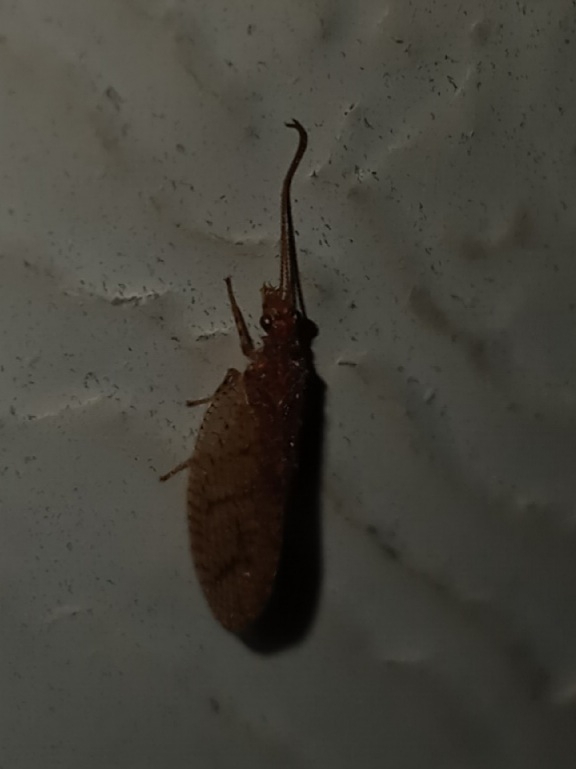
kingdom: Animalia
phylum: Arthropoda
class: Insecta
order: Neuroptera
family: Hemerobiidae
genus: Micromus
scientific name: Micromus posticus
